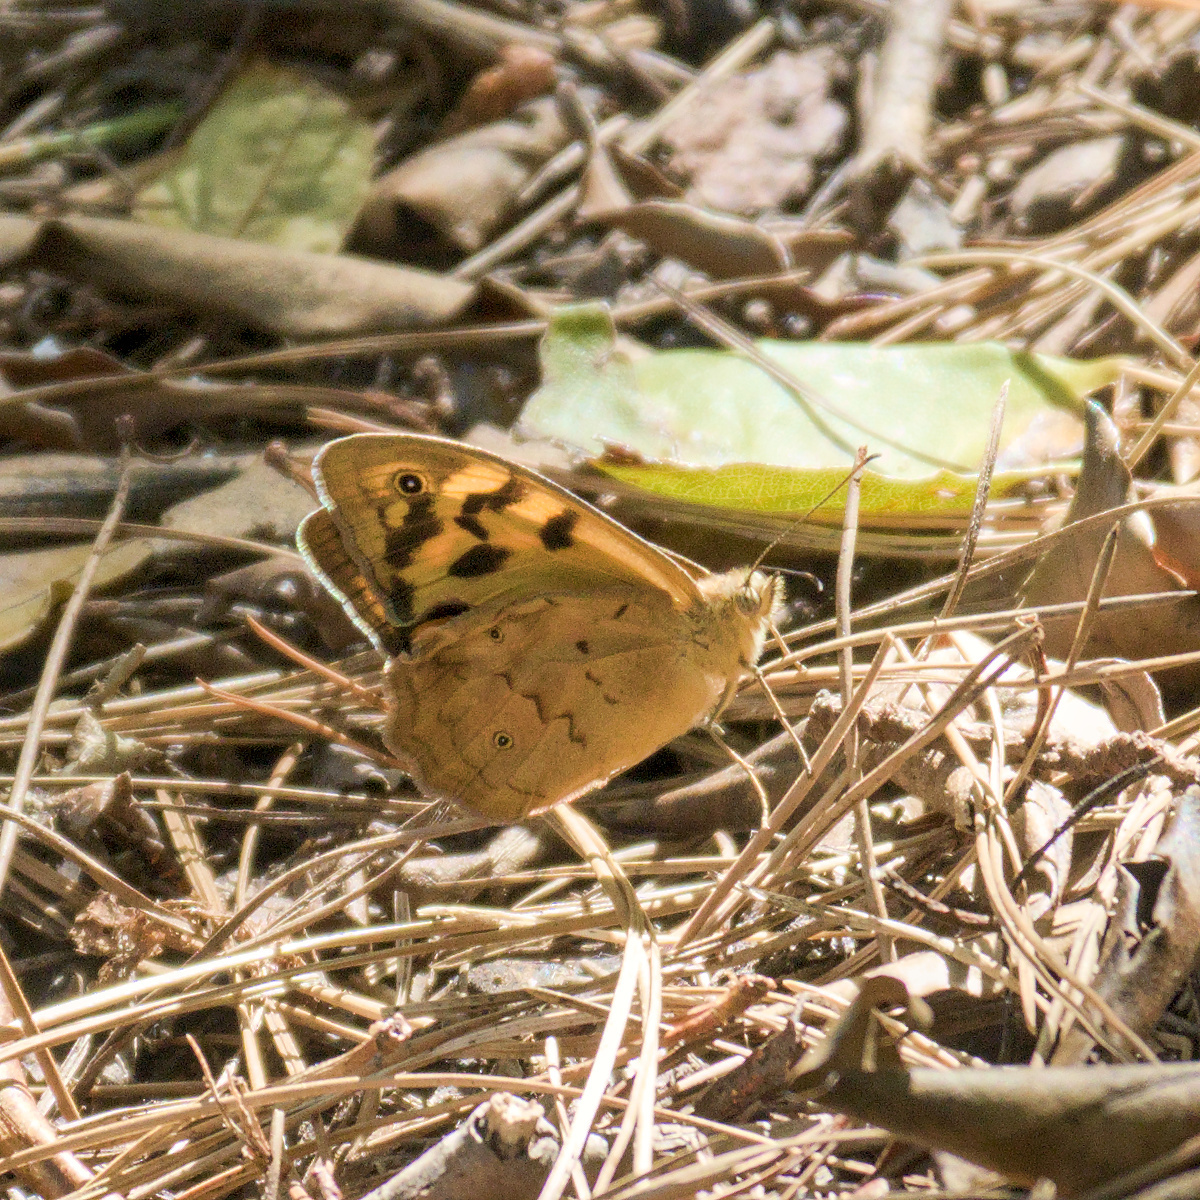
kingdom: Animalia
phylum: Arthropoda
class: Insecta
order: Lepidoptera
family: Nymphalidae
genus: Heteronympha
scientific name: Heteronympha merope
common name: Common brown
